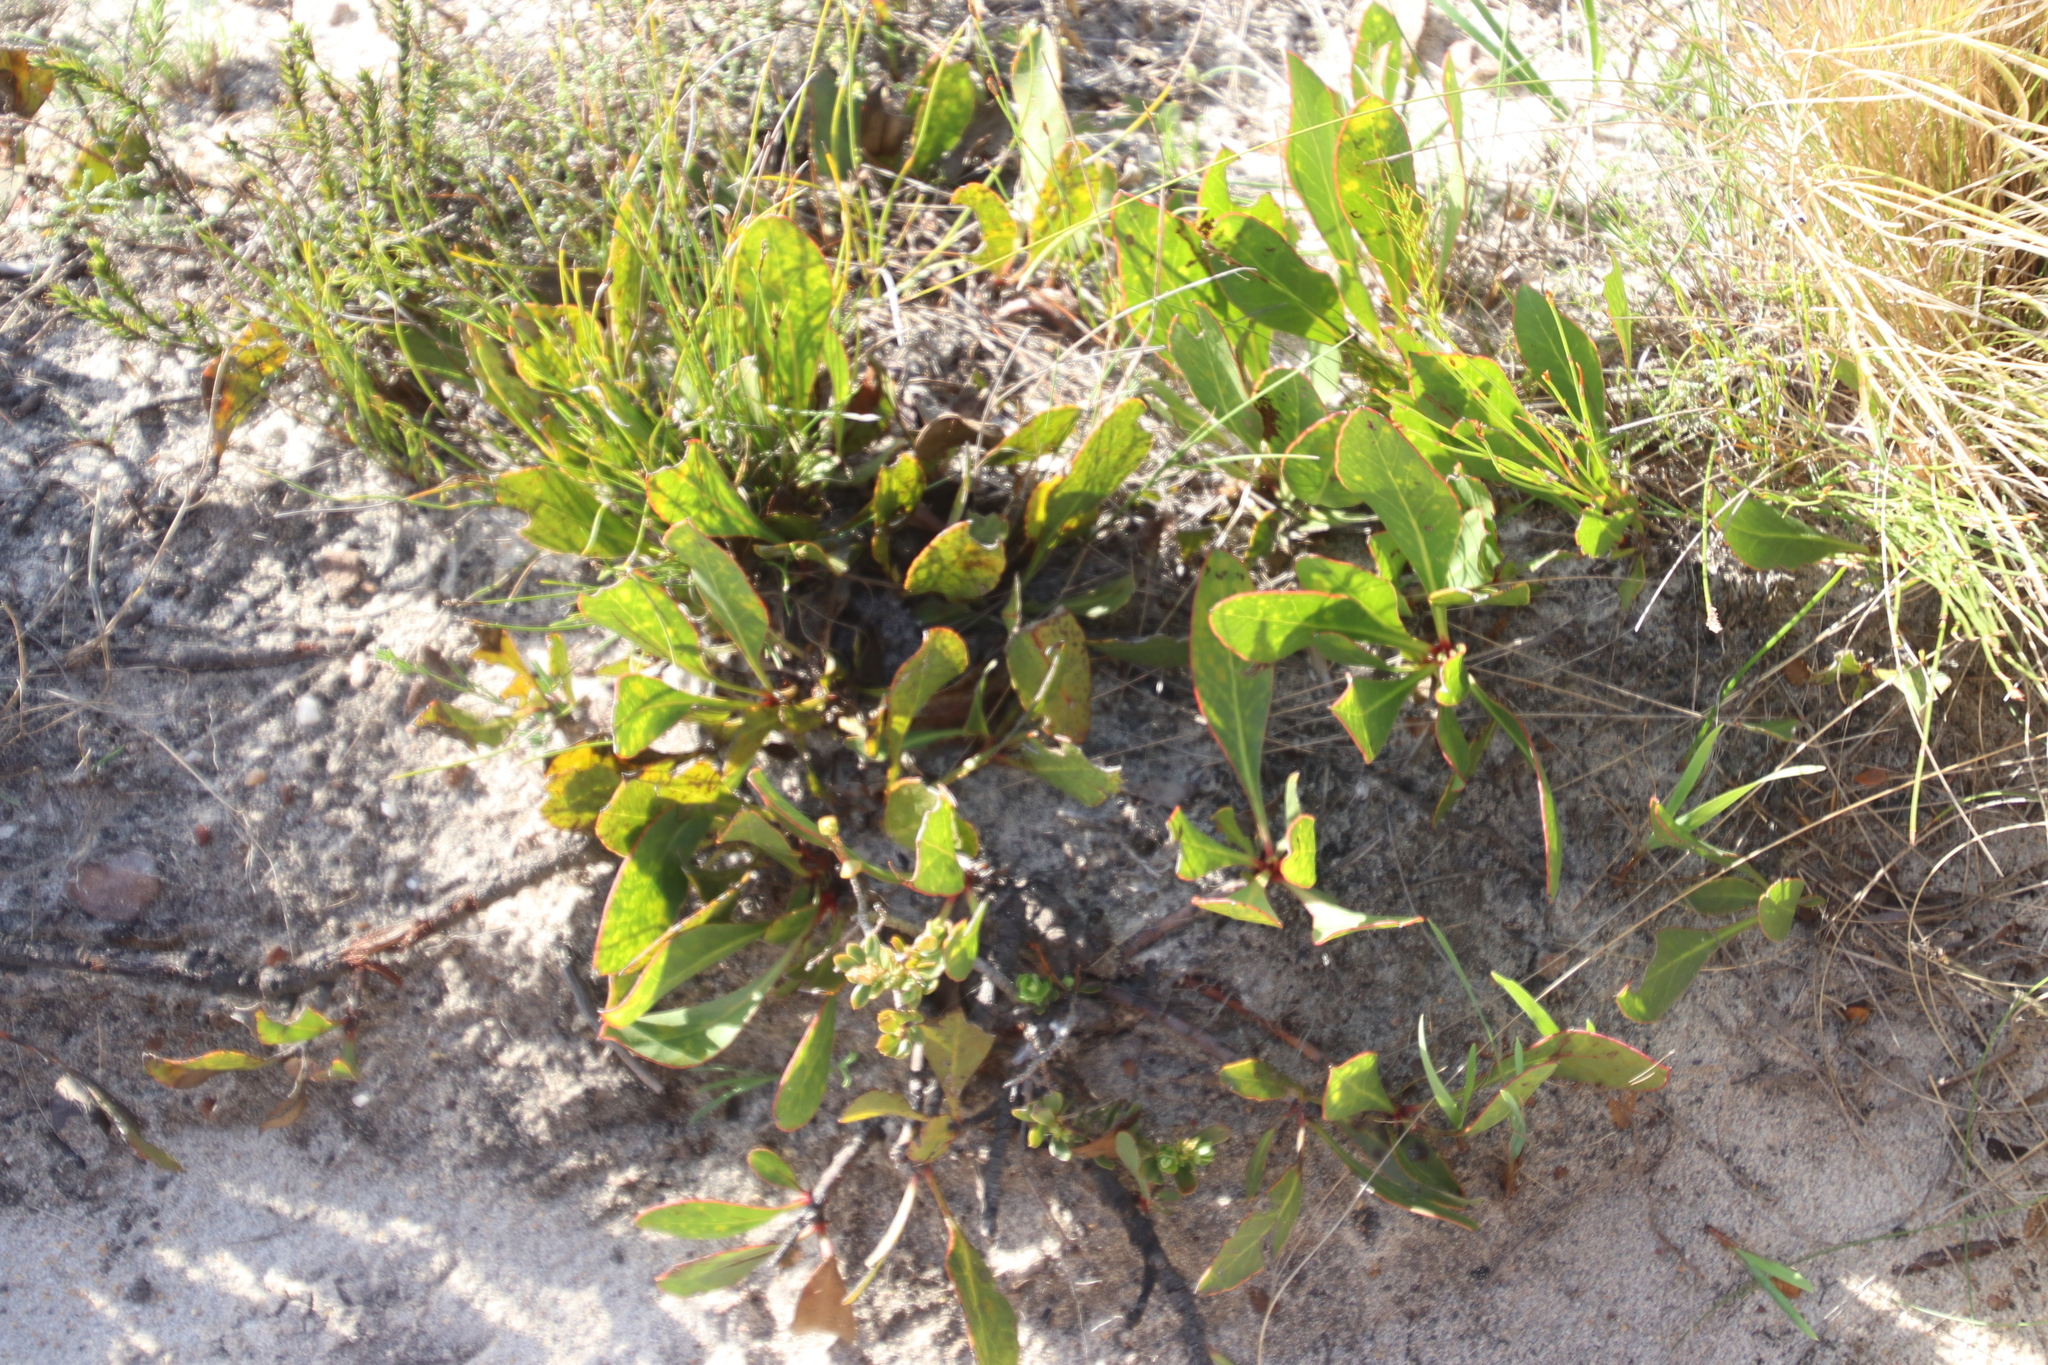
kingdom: Plantae
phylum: Tracheophyta
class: Magnoliopsida
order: Proteales
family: Proteaceae
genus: Protea
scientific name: Protea acaulos
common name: Common ground sugarbush
